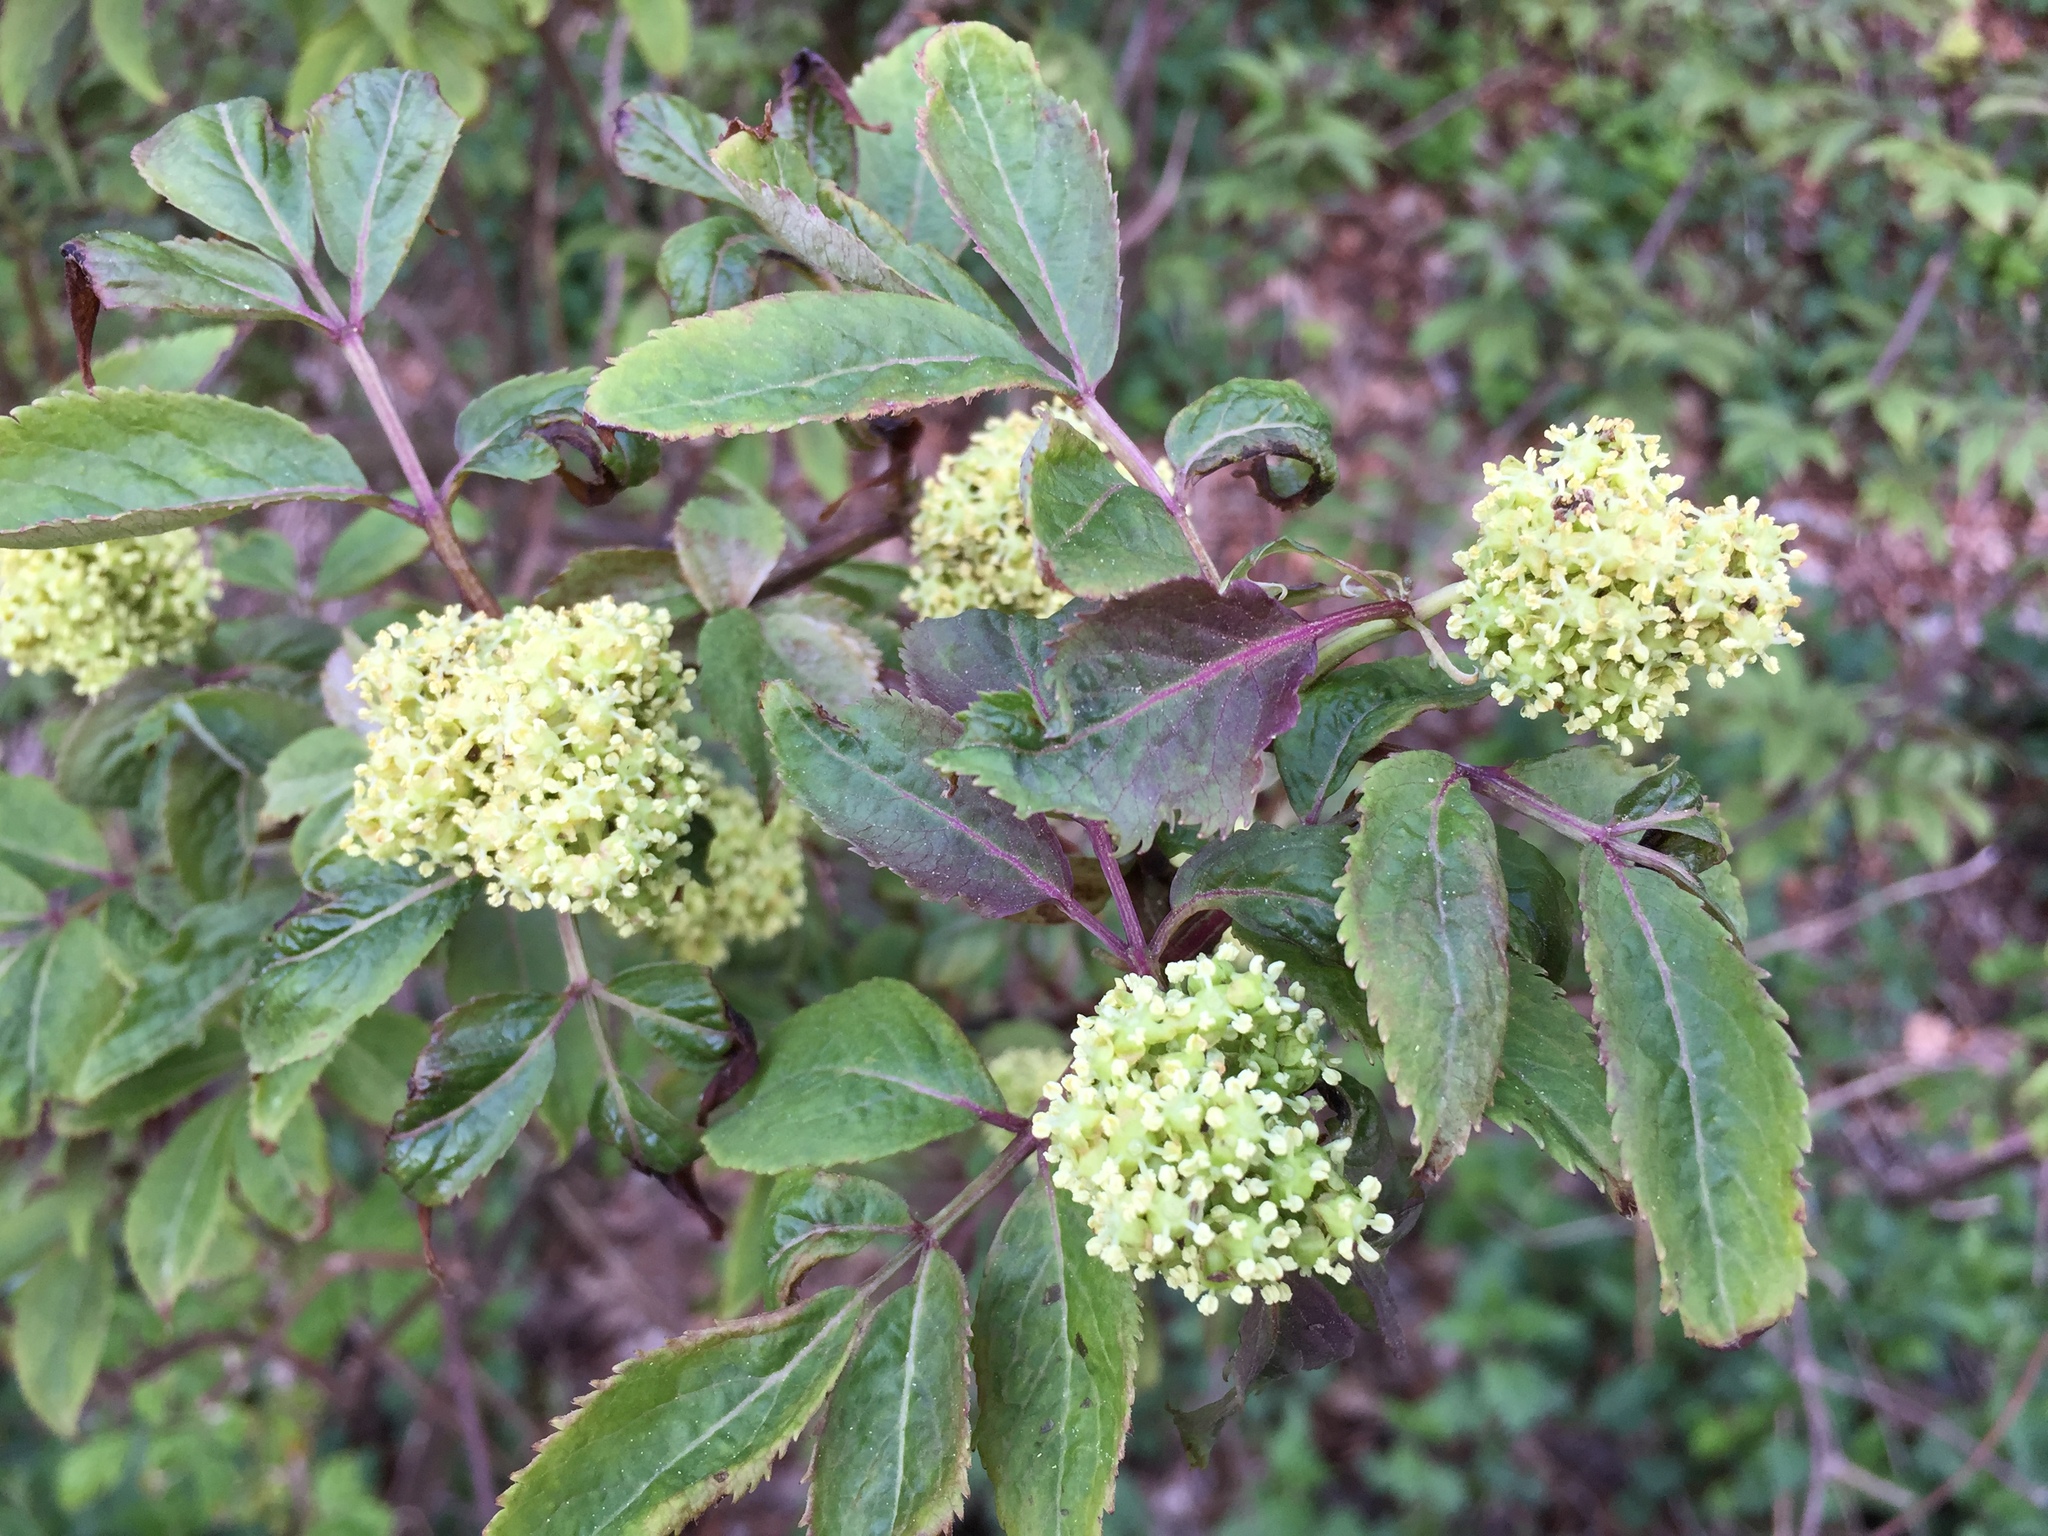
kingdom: Plantae
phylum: Tracheophyta
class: Magnoliopsida
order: Dipsacales
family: Viburnaceae
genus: Sambucus
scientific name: Sambucus racemosa
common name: Red-berried elder
